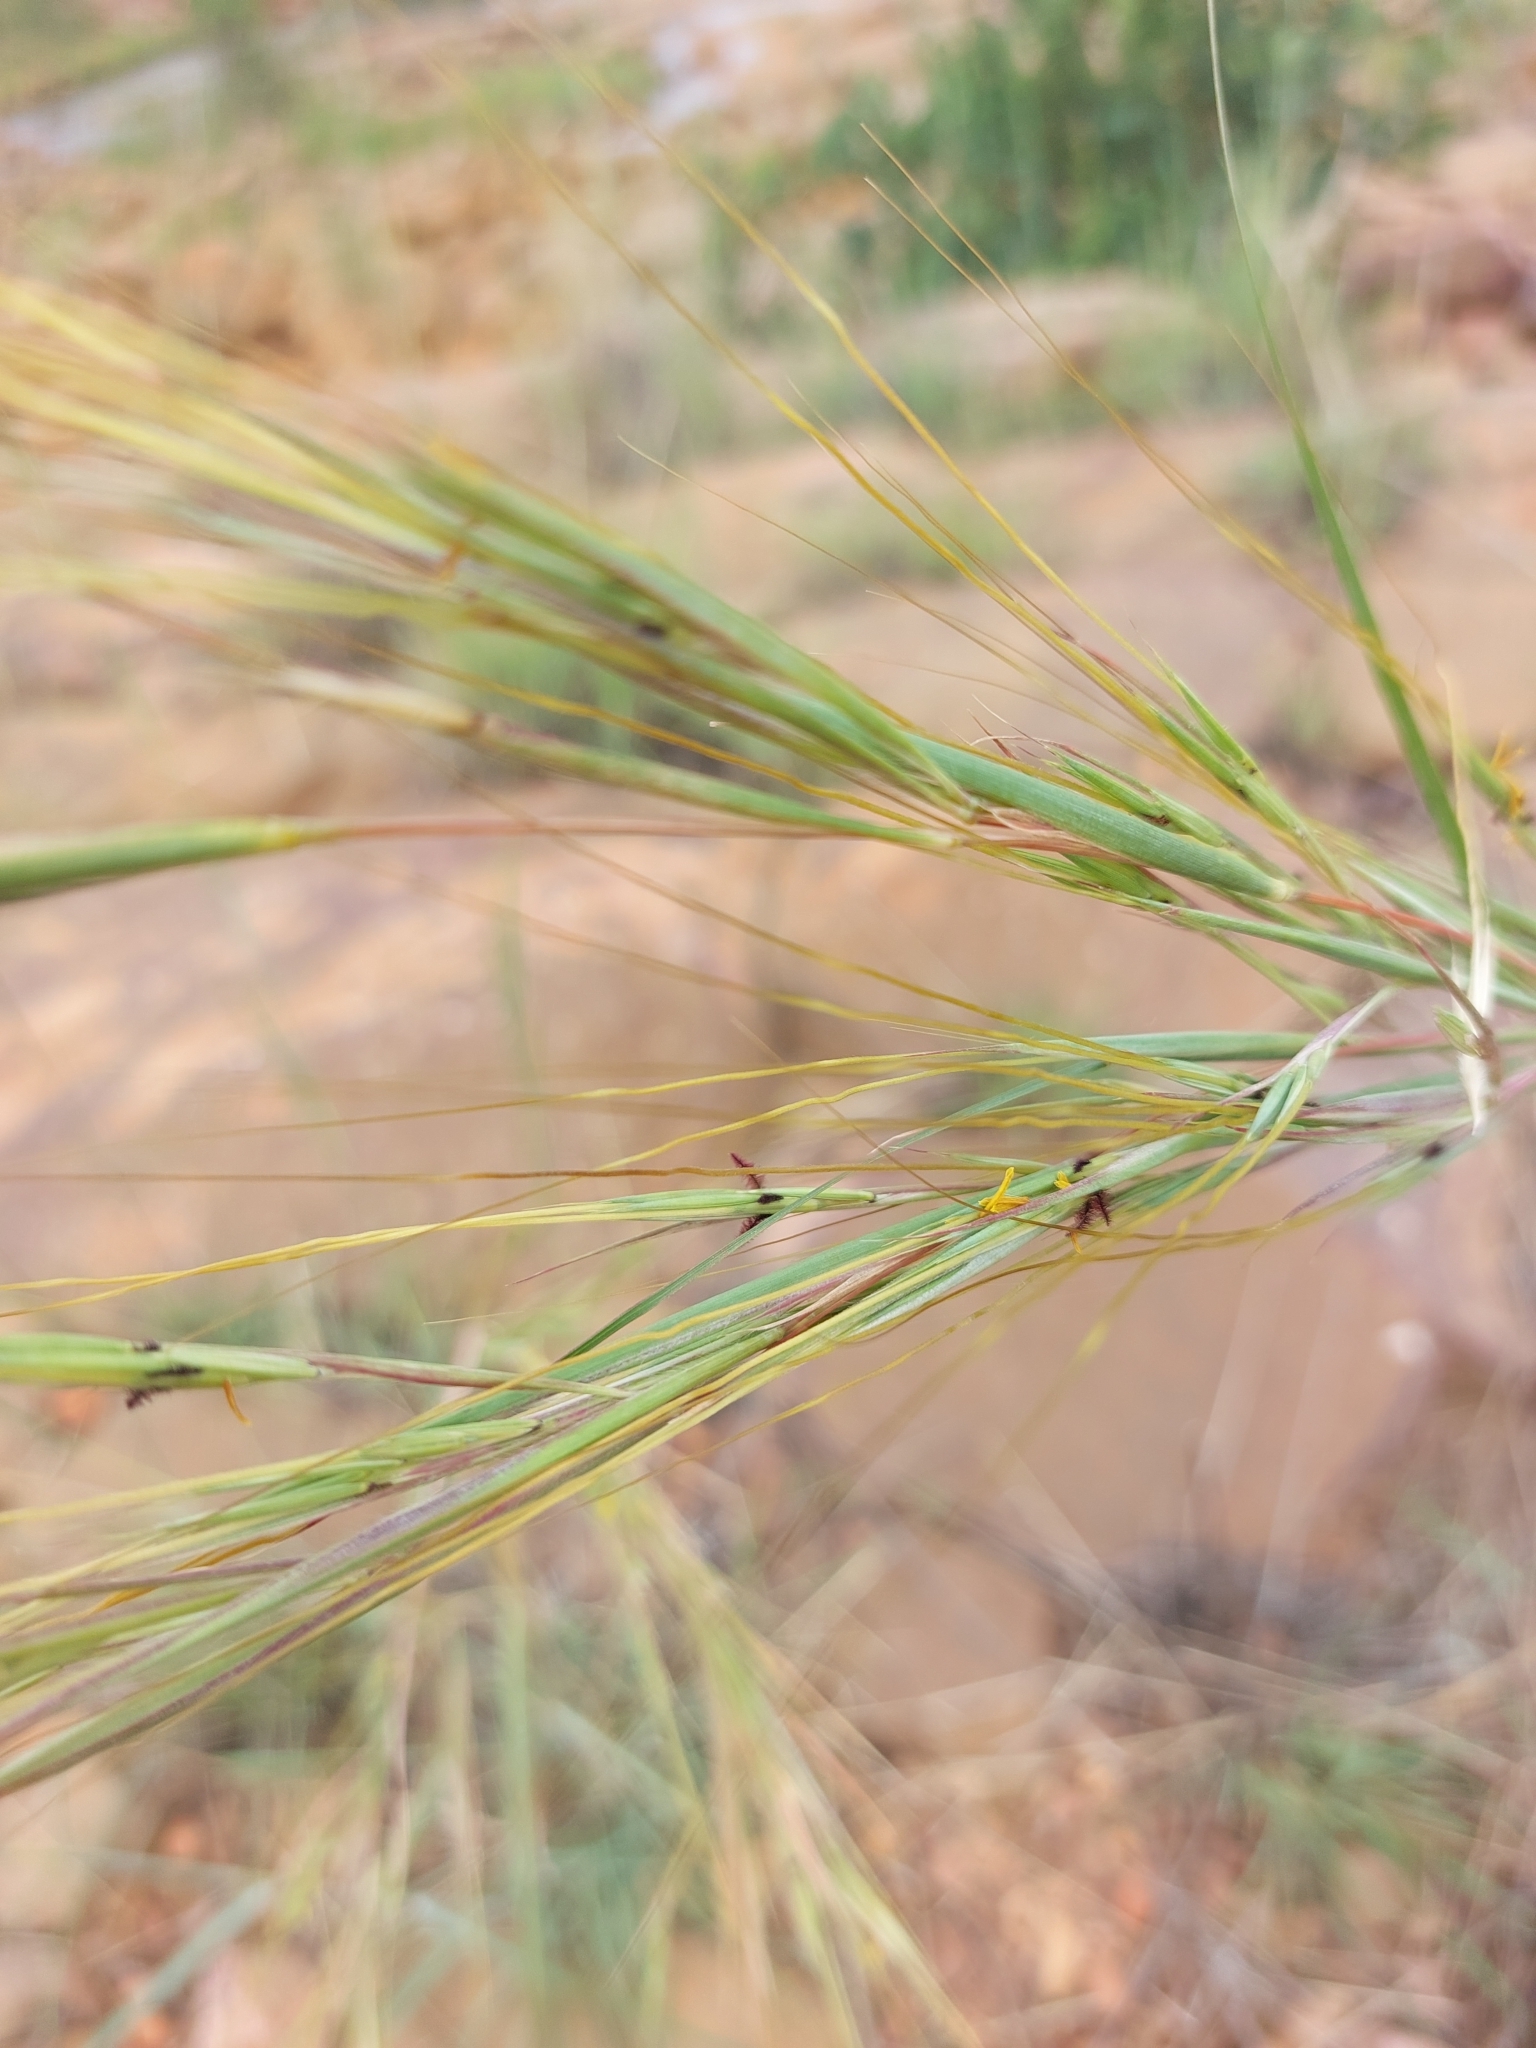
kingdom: Plantae
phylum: Tracheophyta
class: Liliopsida
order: Poales
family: Poaceae
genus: Hyperthelia
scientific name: Hyperthelia dissoluta
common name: Yellow thatching grass
